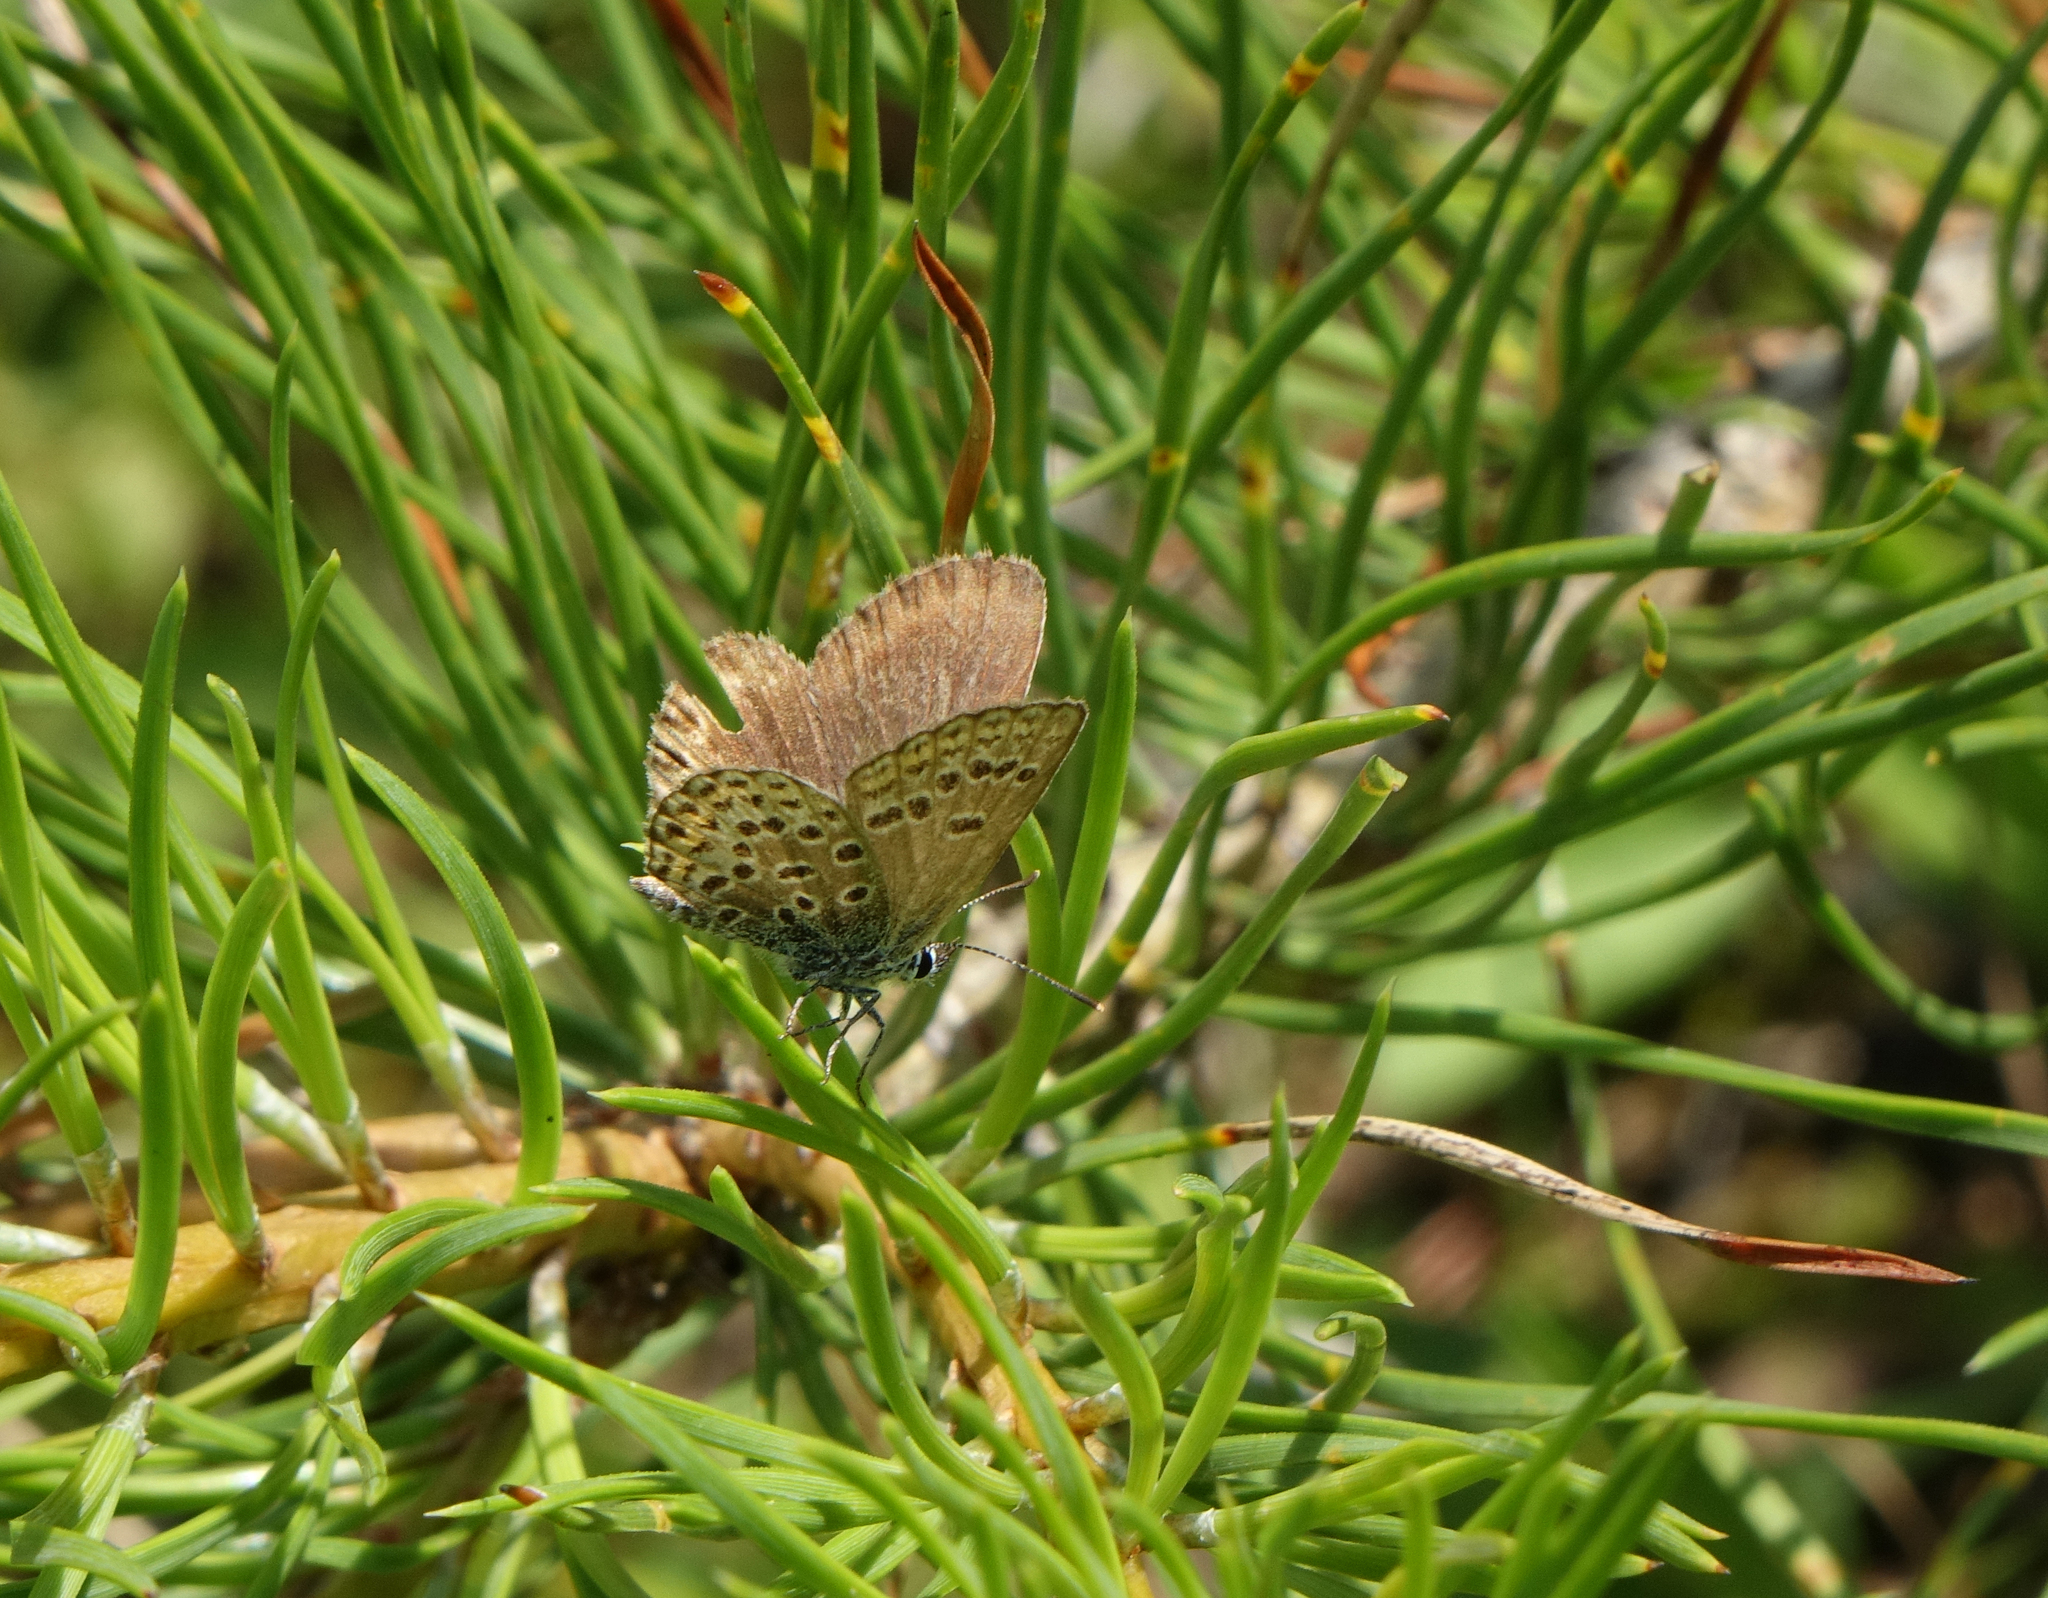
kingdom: Animalia
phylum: Arthropoda
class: Insecta
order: Lepidoptera
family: Lycaenidae
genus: Plebejus
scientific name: Plebejus argus
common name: Silver-studded blue
